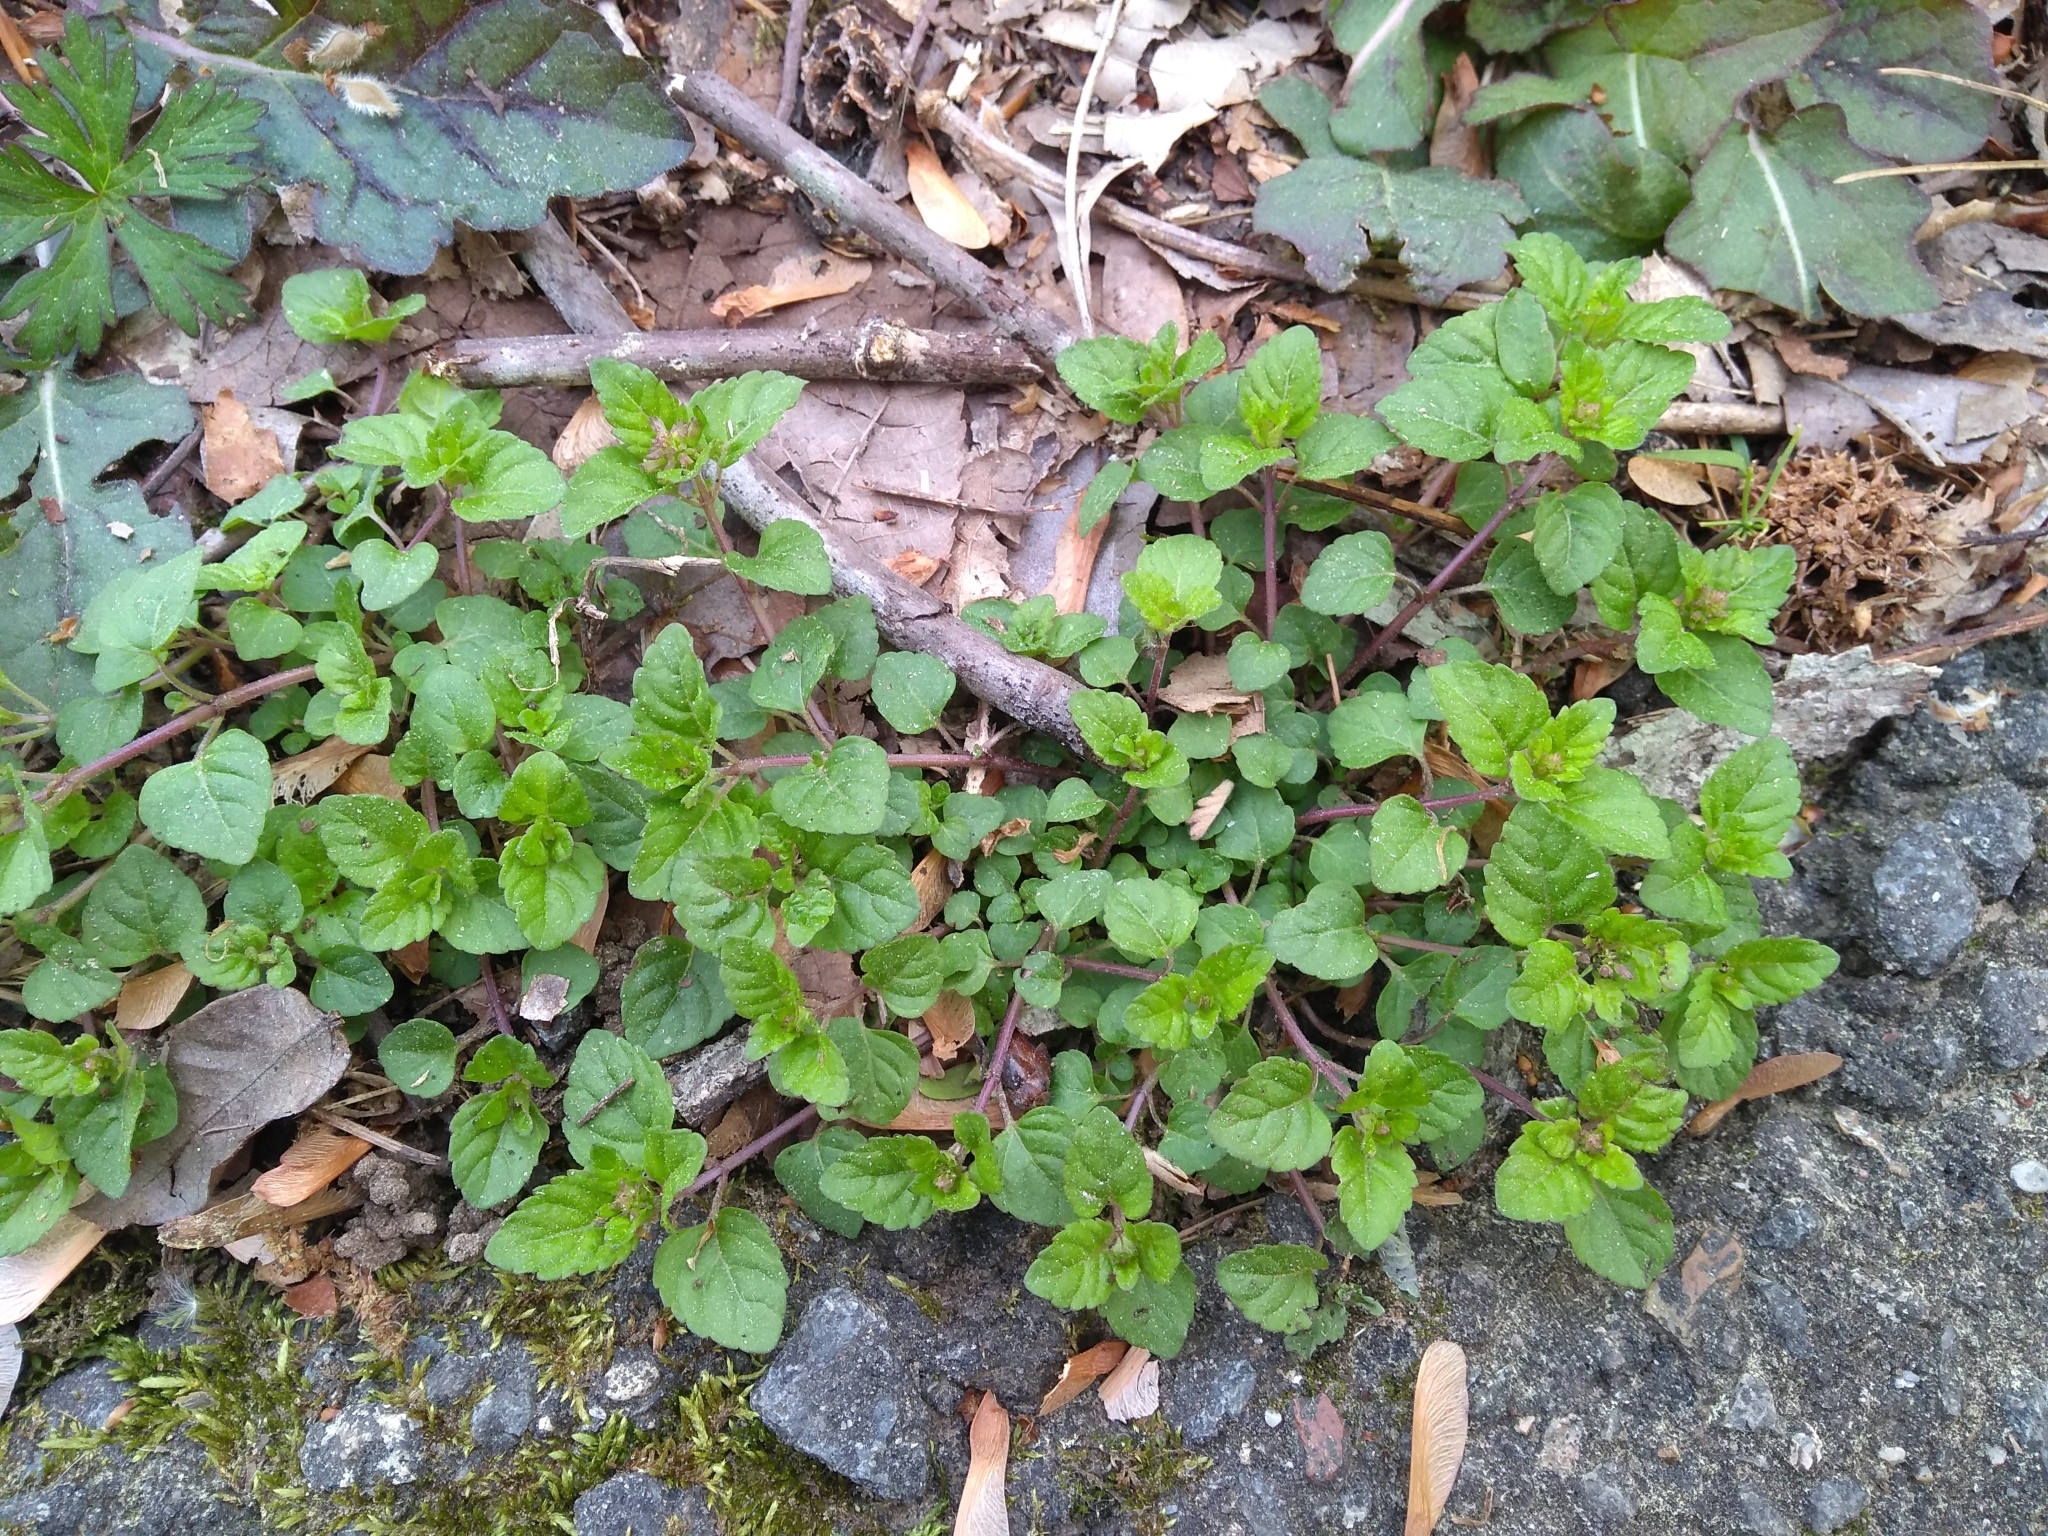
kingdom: Plantae
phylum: Tracheophyta
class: Magnoliopsida
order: Lamiales
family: Lamiaceae
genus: Clinopodium
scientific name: Clinopodium gracile
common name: Slender wild basil
